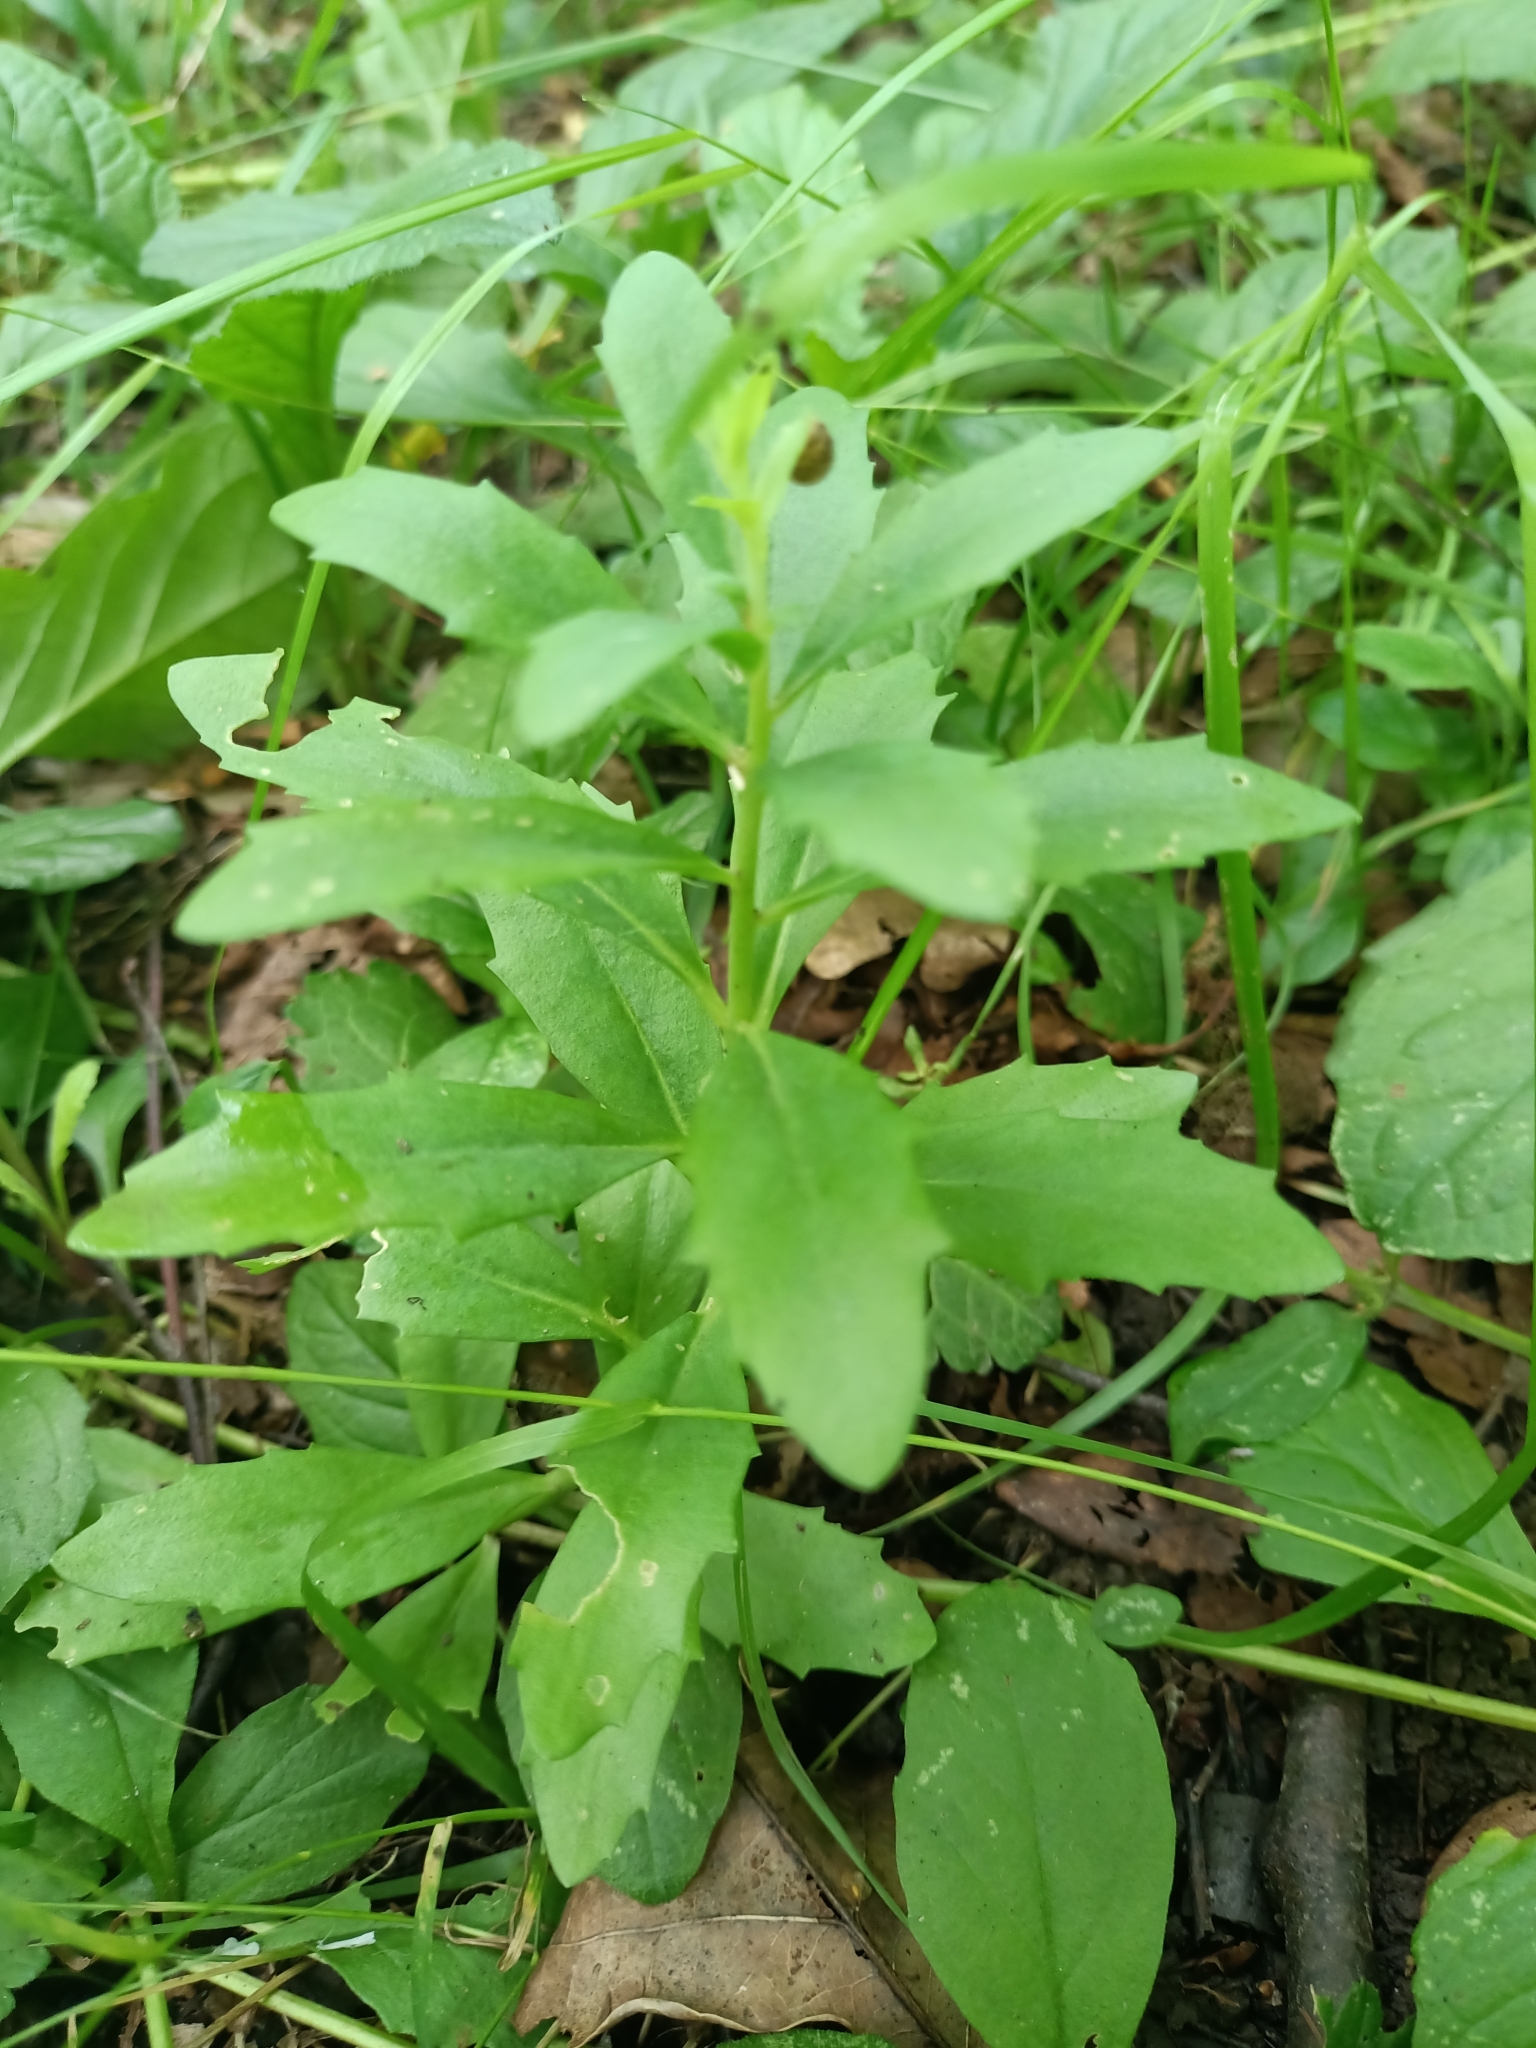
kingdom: Plantae
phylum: Tracheophyta
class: Magnoliopsida
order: Saxifragales
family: Crassulaceae
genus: Hylotelephium
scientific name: Hylotelephium telephium
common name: Live-forever
